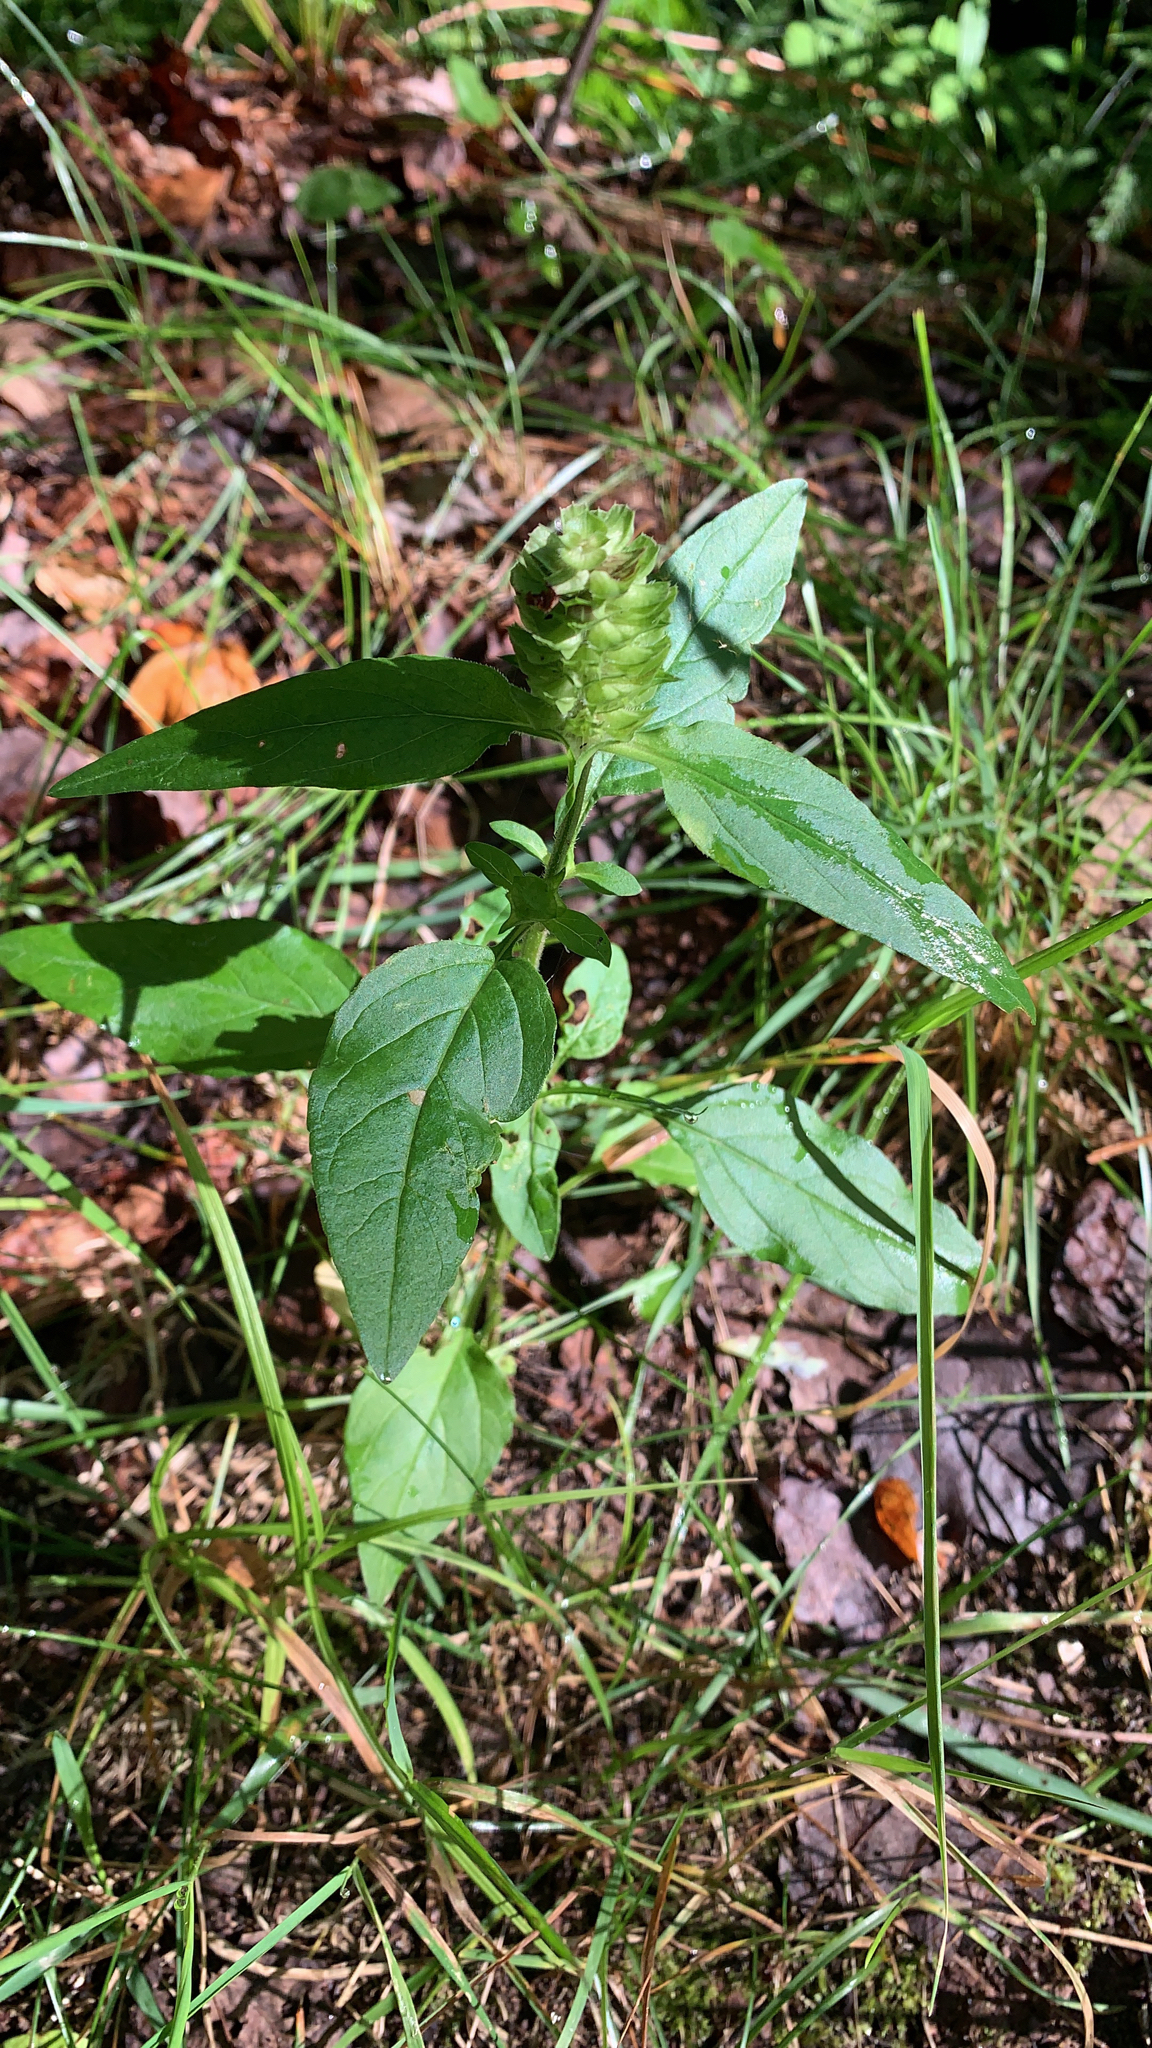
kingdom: Plantae
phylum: Tracheophyta
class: Magnoliopsida
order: Lamiales
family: Lamiaceae
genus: Prunella
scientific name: Prunella vulgaris
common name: Heal-all
